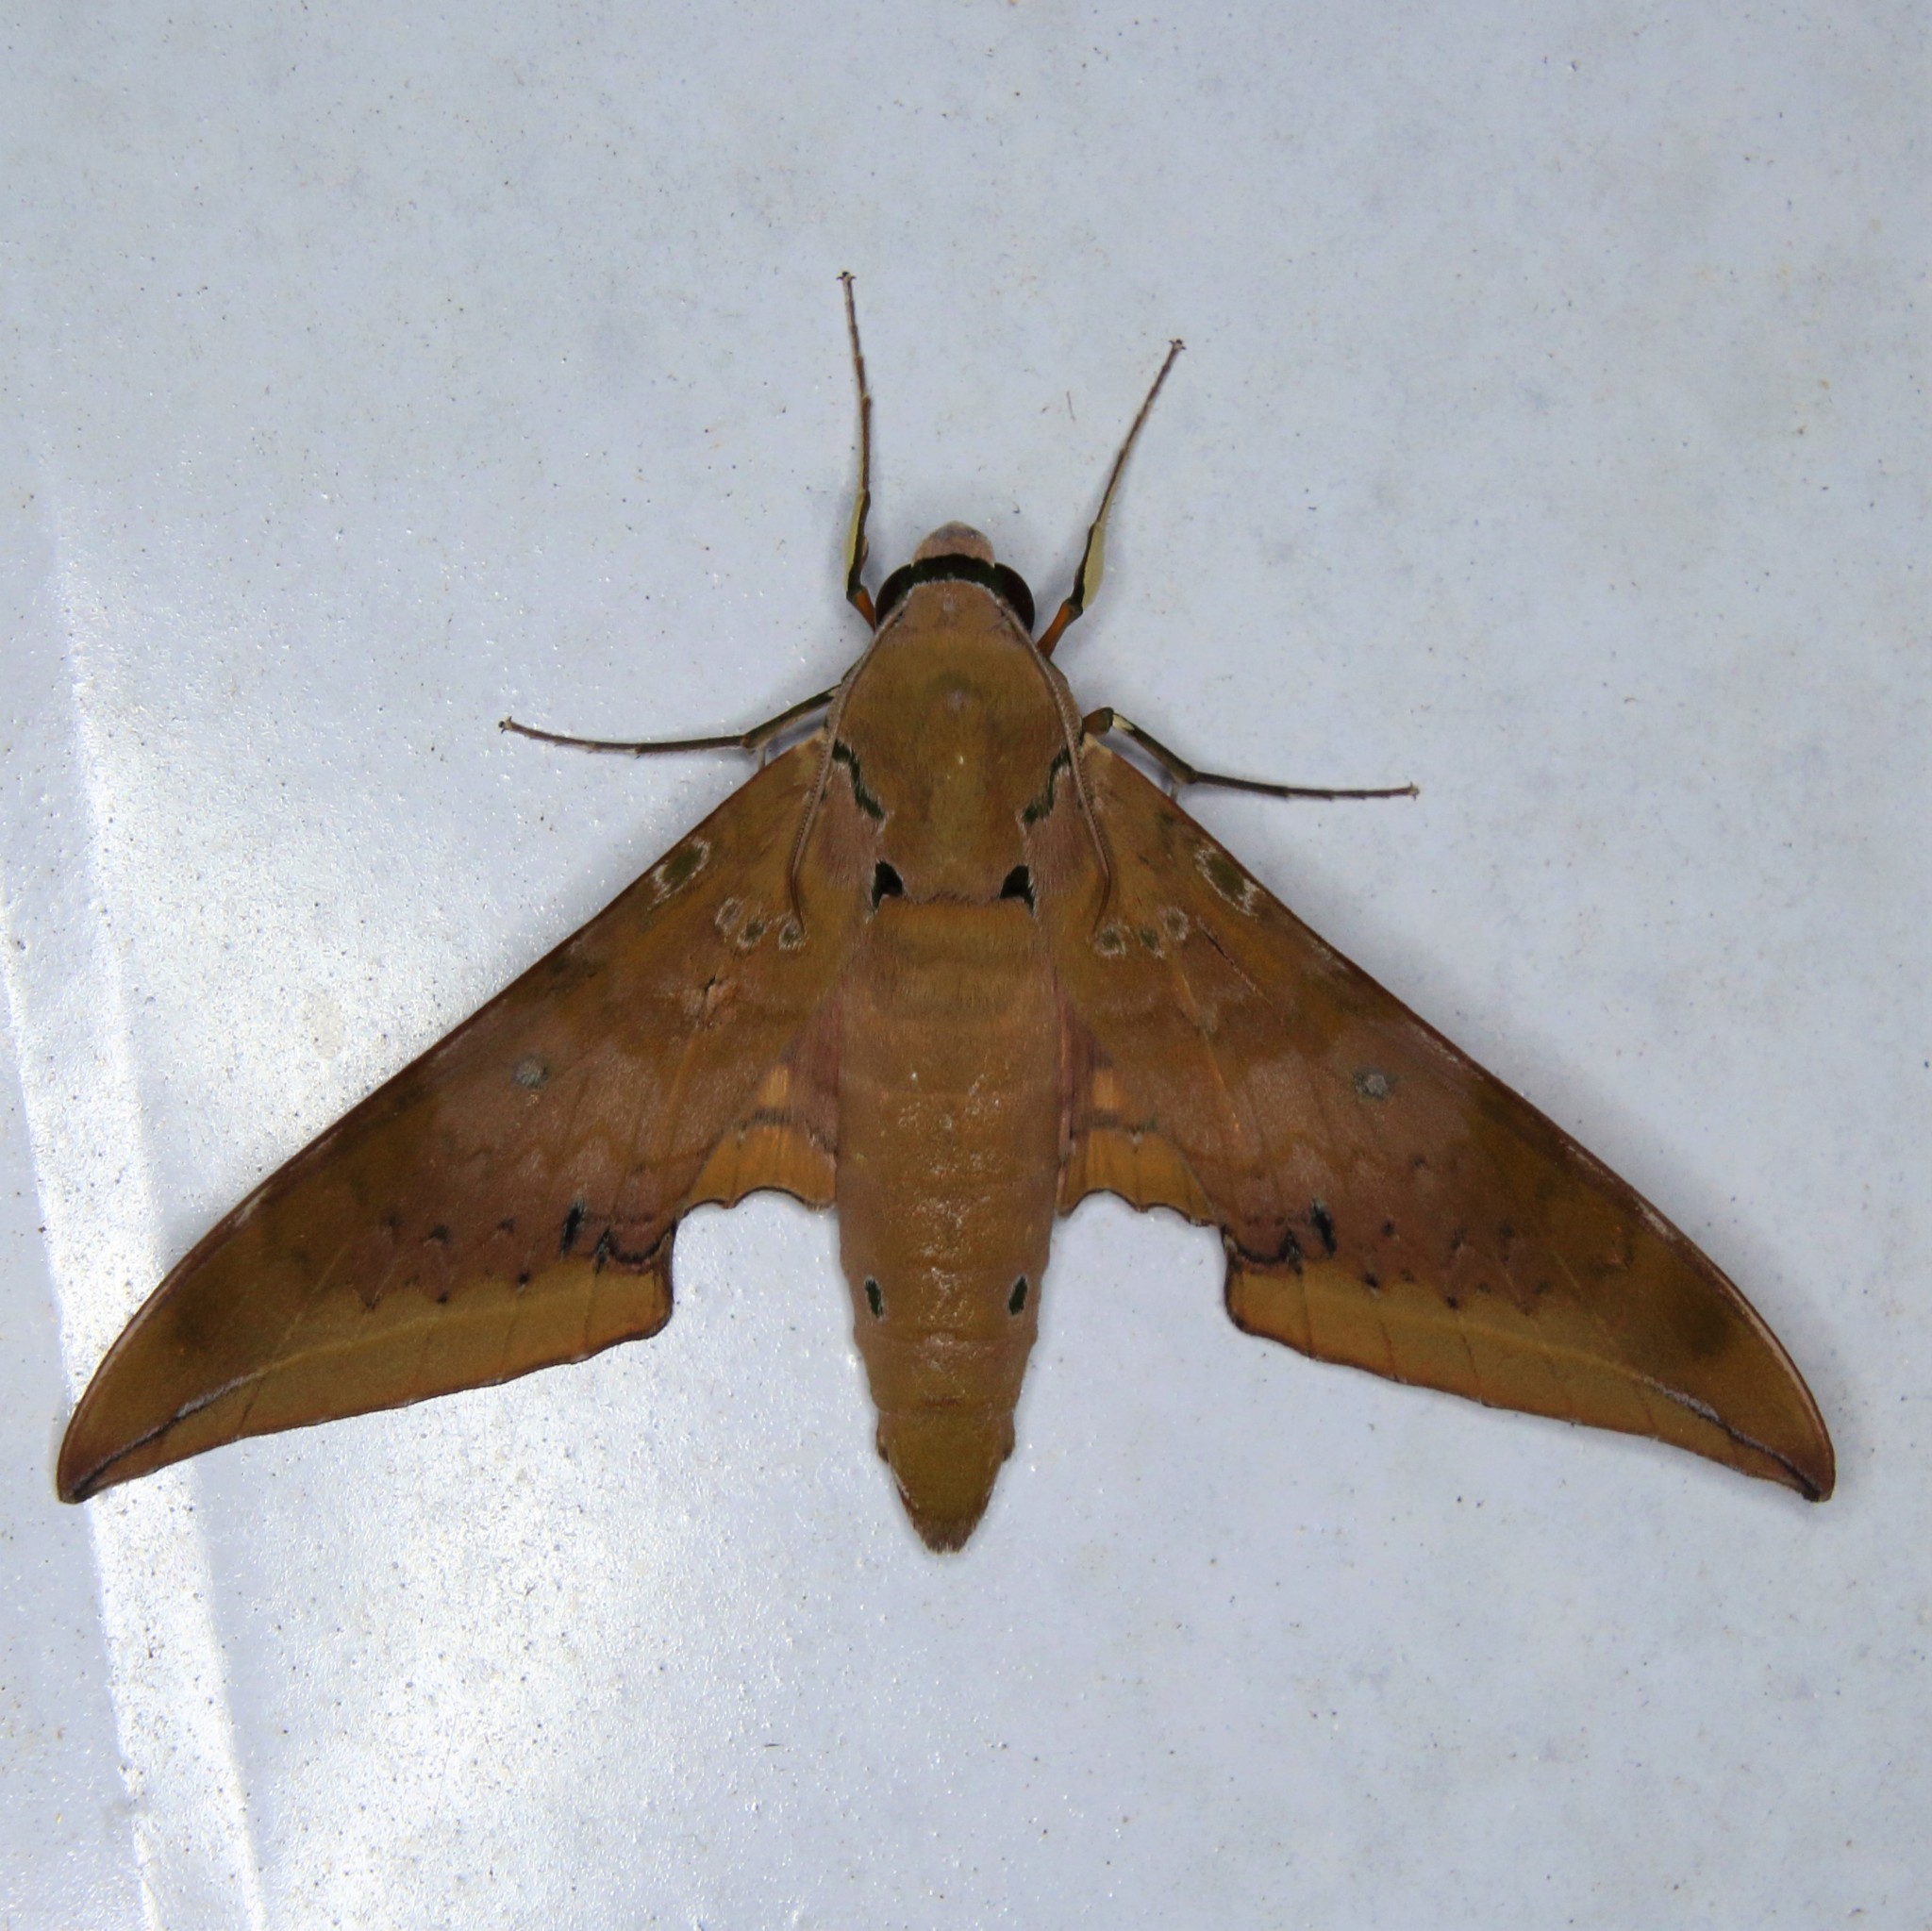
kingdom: Animalia
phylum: Arthropoda
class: Insecta
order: Lepidoptera
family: Sphingidae
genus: Ambulyx
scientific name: Ambulyx moorei
